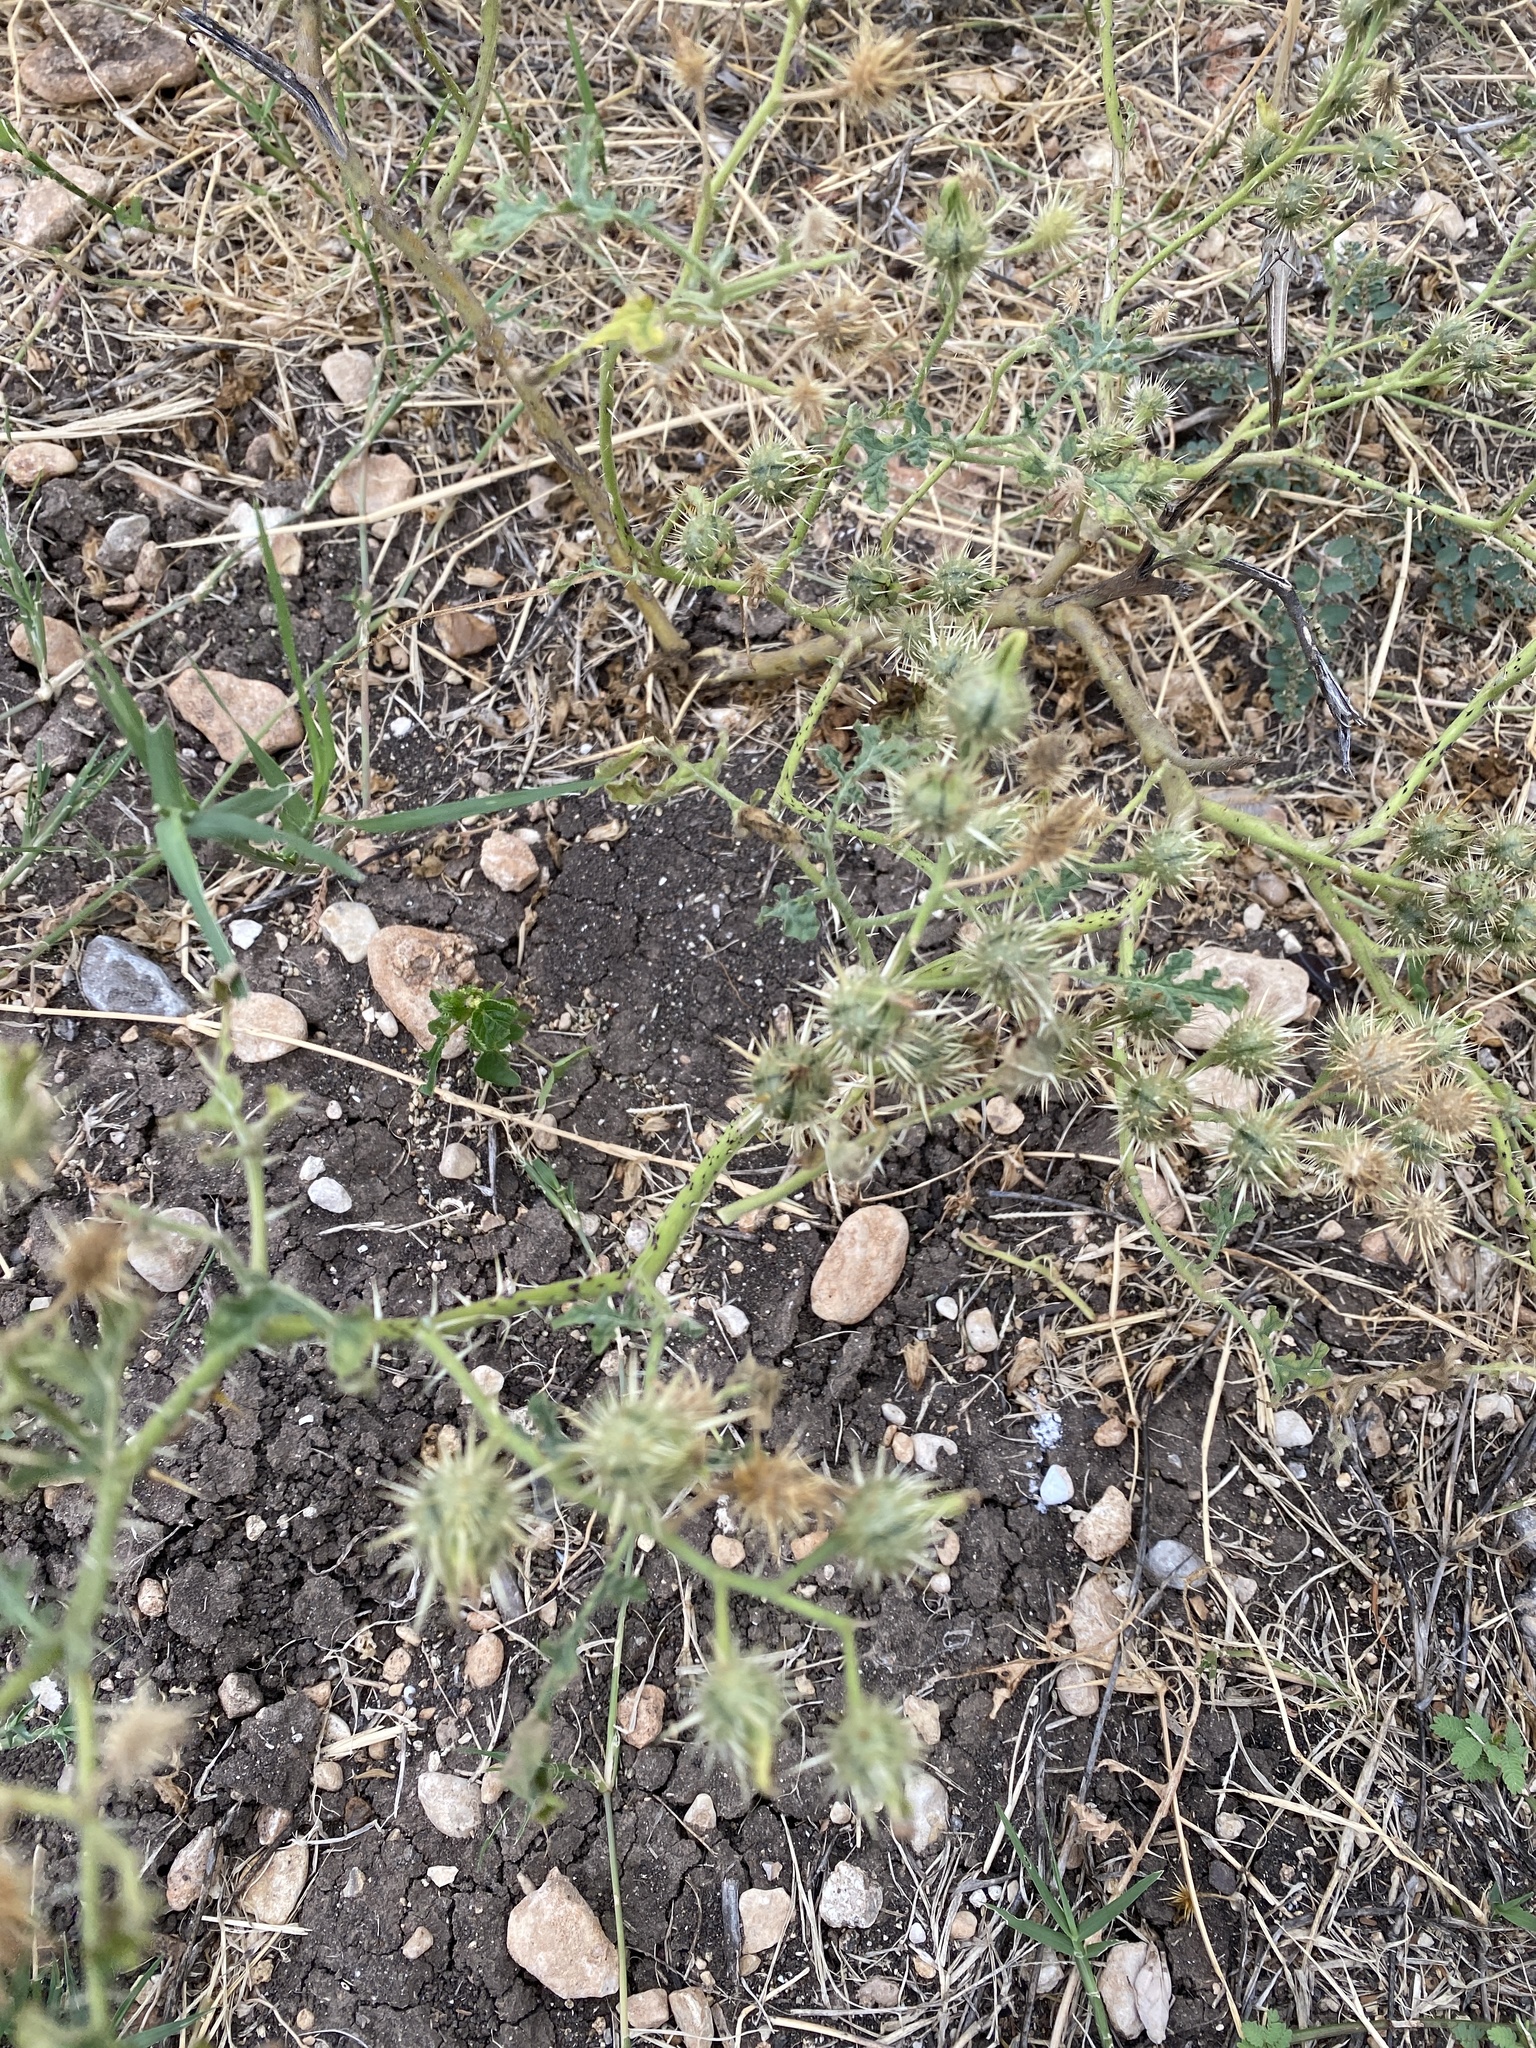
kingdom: Plantae
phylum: Tracheophyta
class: Magnoliopsida
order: Solanales
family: Solanaceae
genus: Solanum
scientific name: Solanum angustifolium
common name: Buffalobur nightshade
